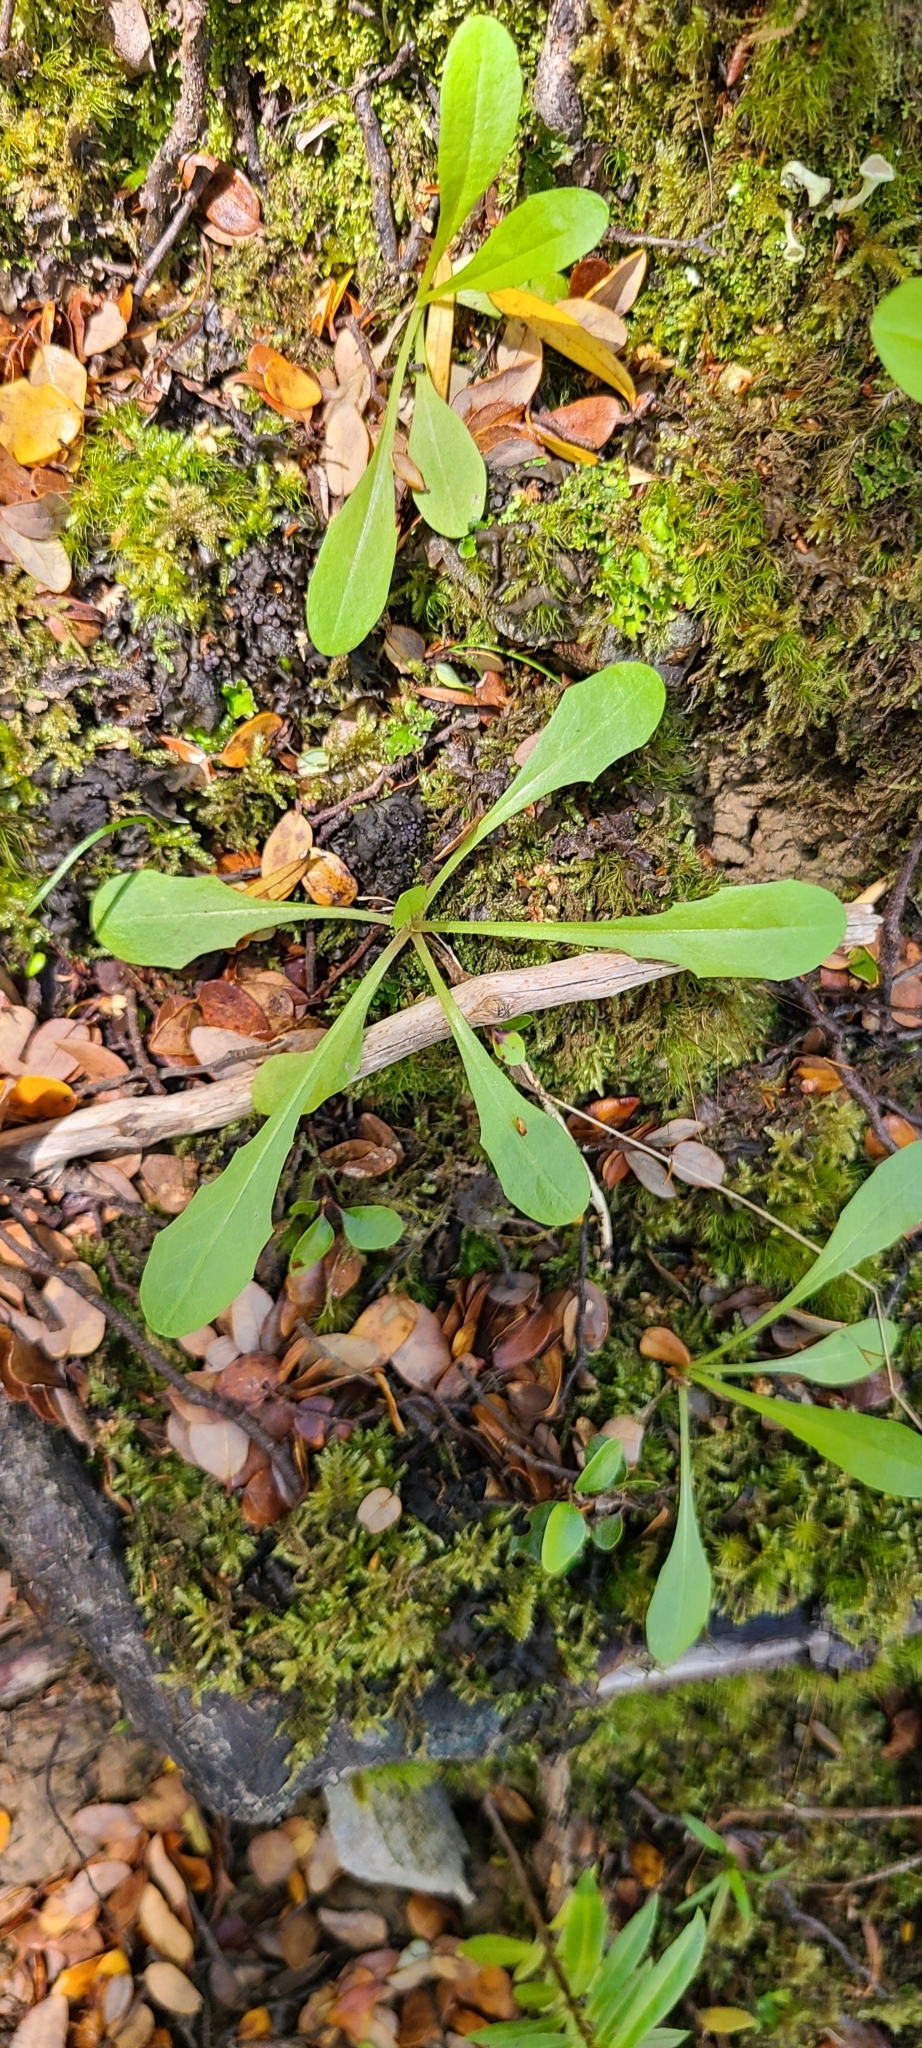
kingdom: Plantae
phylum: Tracheophyta
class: Magnoliopsida
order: Asterales
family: Asteraceae
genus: Crepis
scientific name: Crepis capillaris
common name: Smooth hawksbeard
